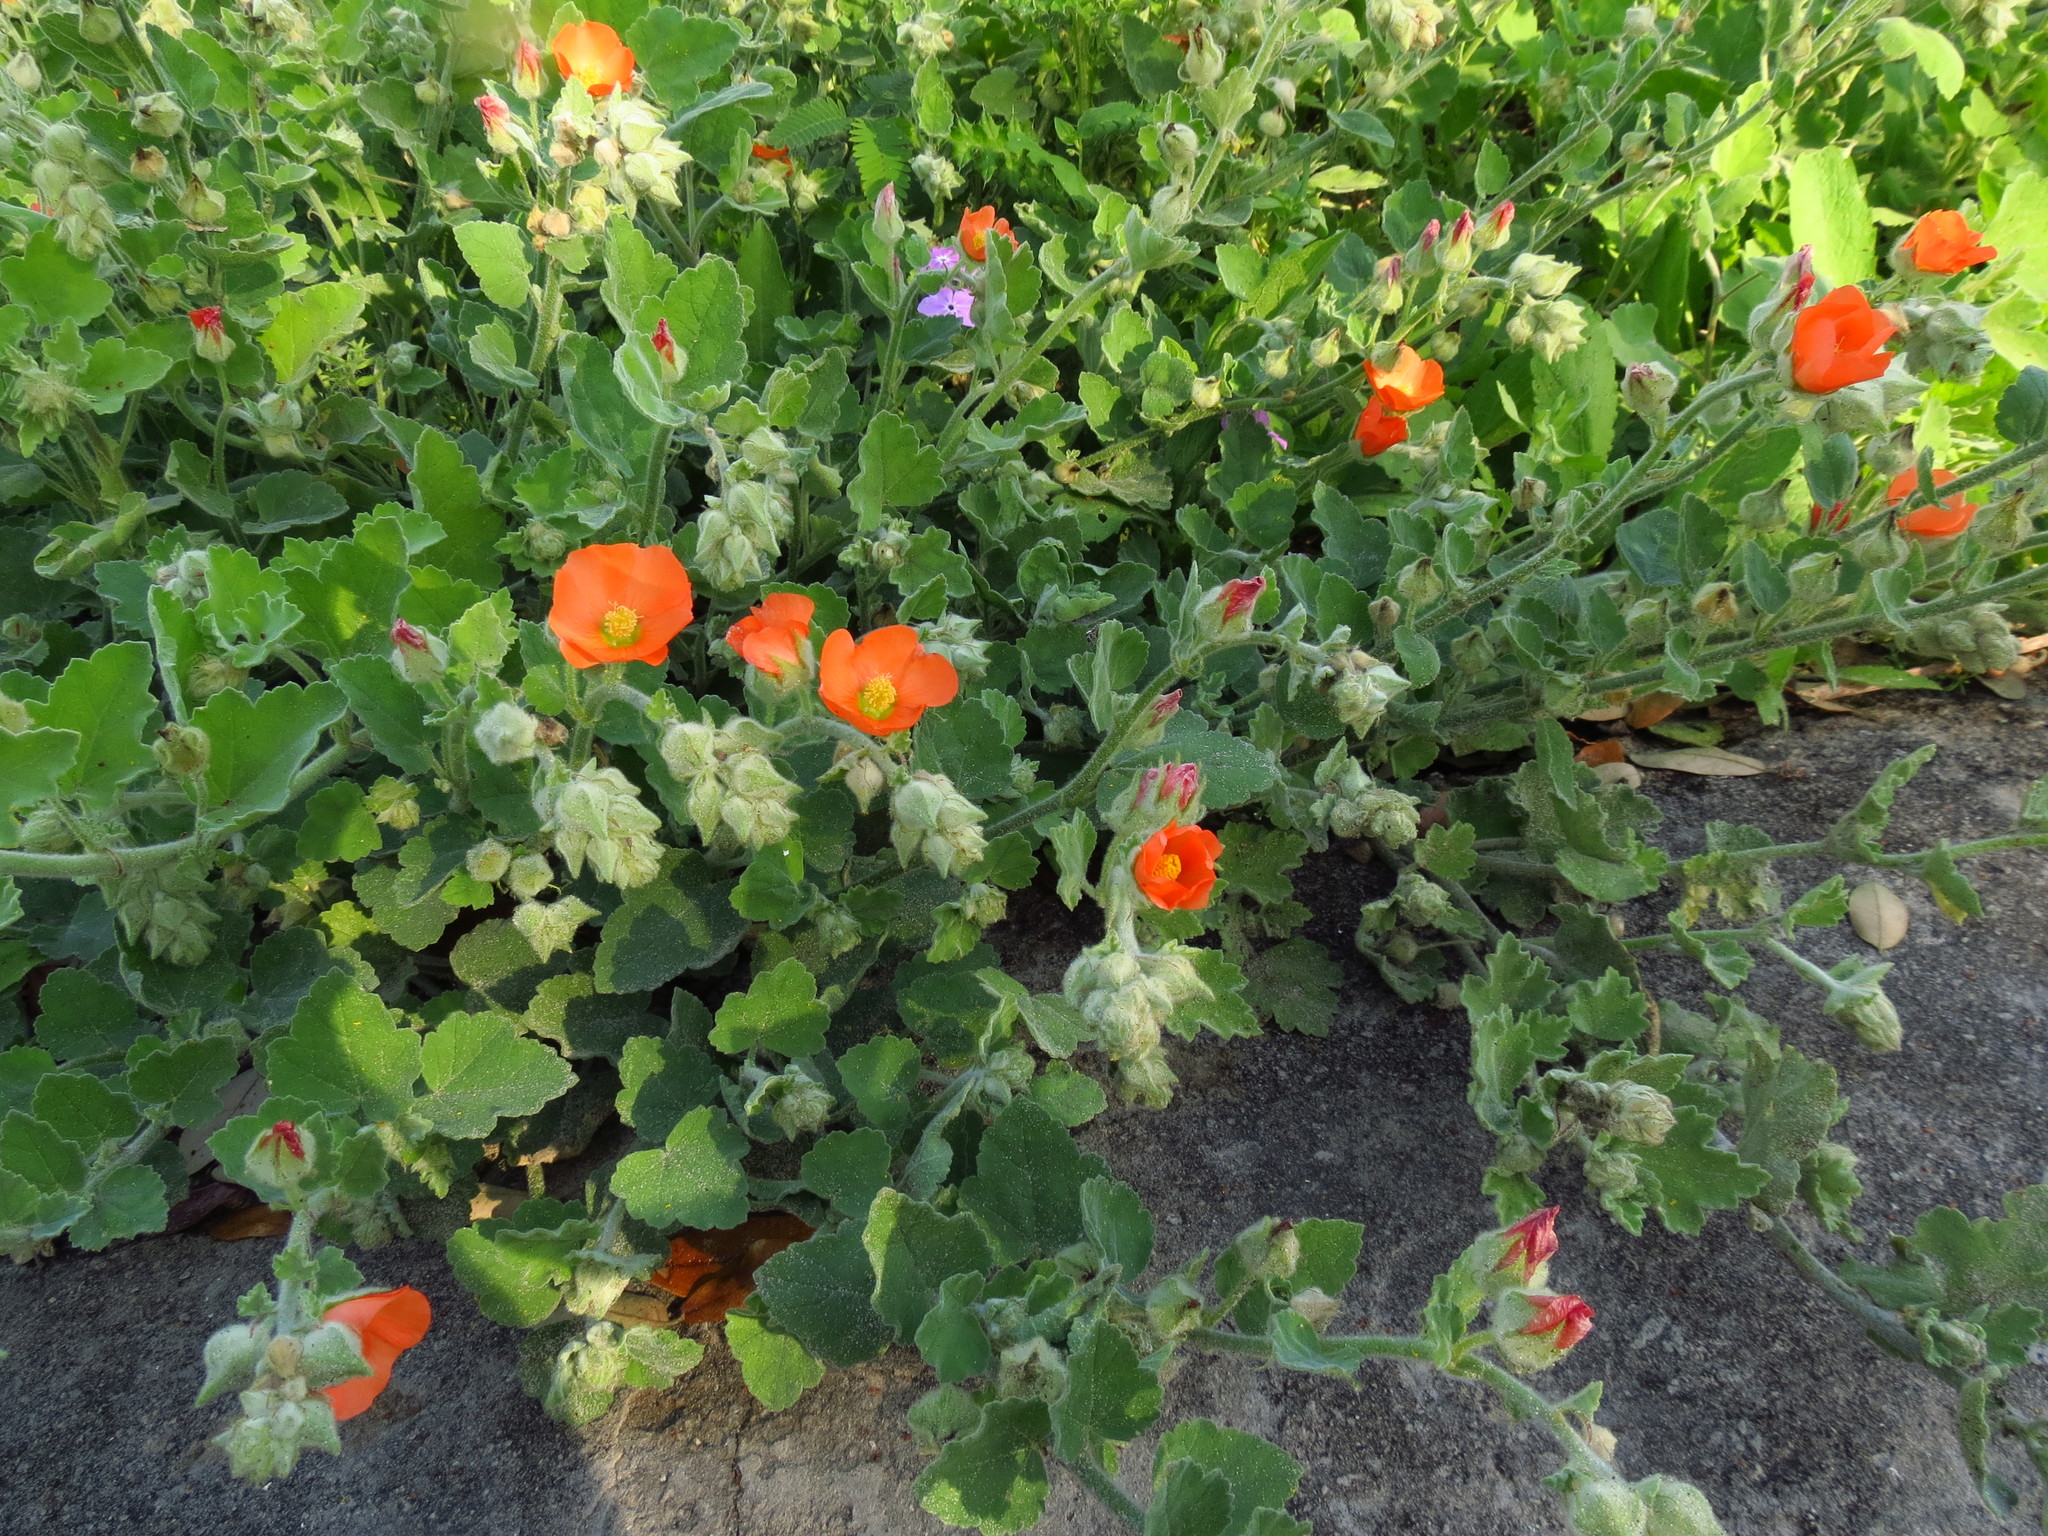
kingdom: Plantae
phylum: Tracheophyta
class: Magnoliopsida
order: Malvales
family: Malvaceae
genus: Sphaeralcea
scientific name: Sphaeralcea lindheimeri
